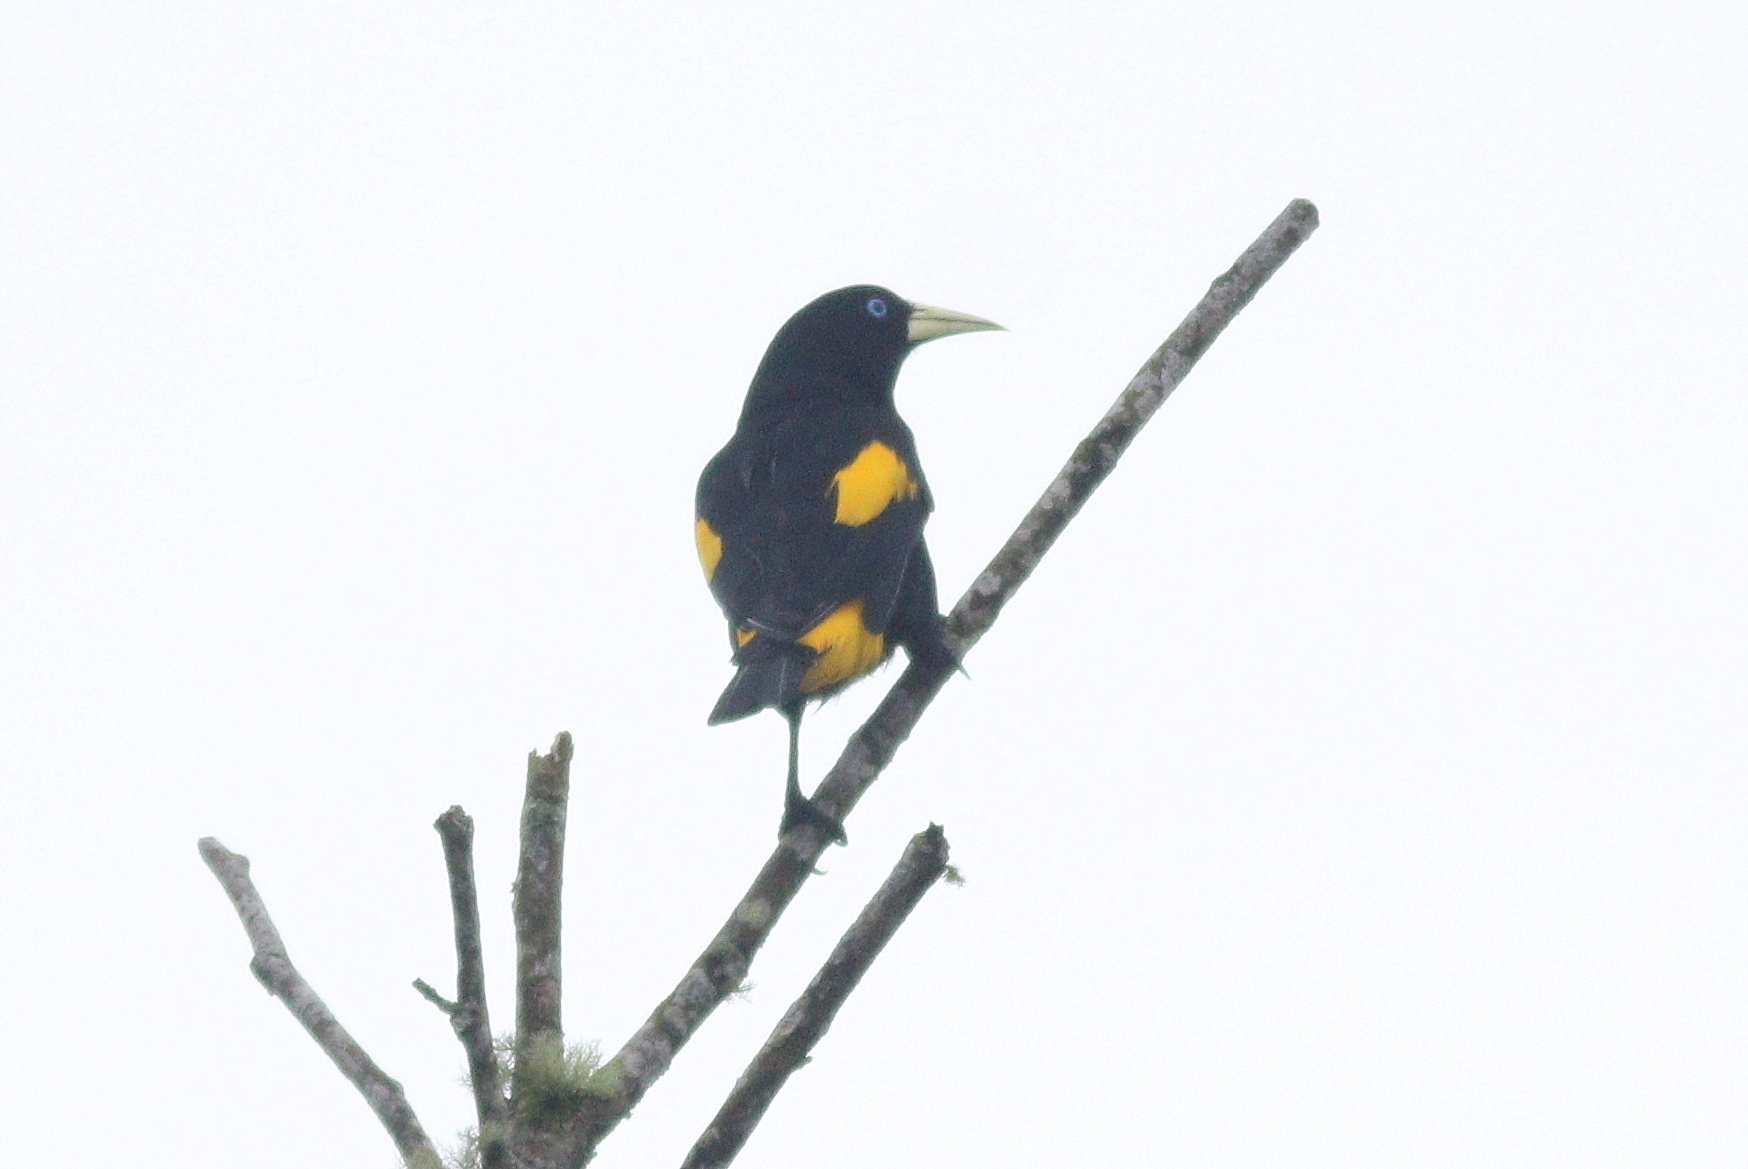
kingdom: Animalia
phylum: Chordata
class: Aves
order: Passeriformes
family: Icteridae
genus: Cacicus
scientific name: Cacicus cela
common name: Yellow-rumped cacique
